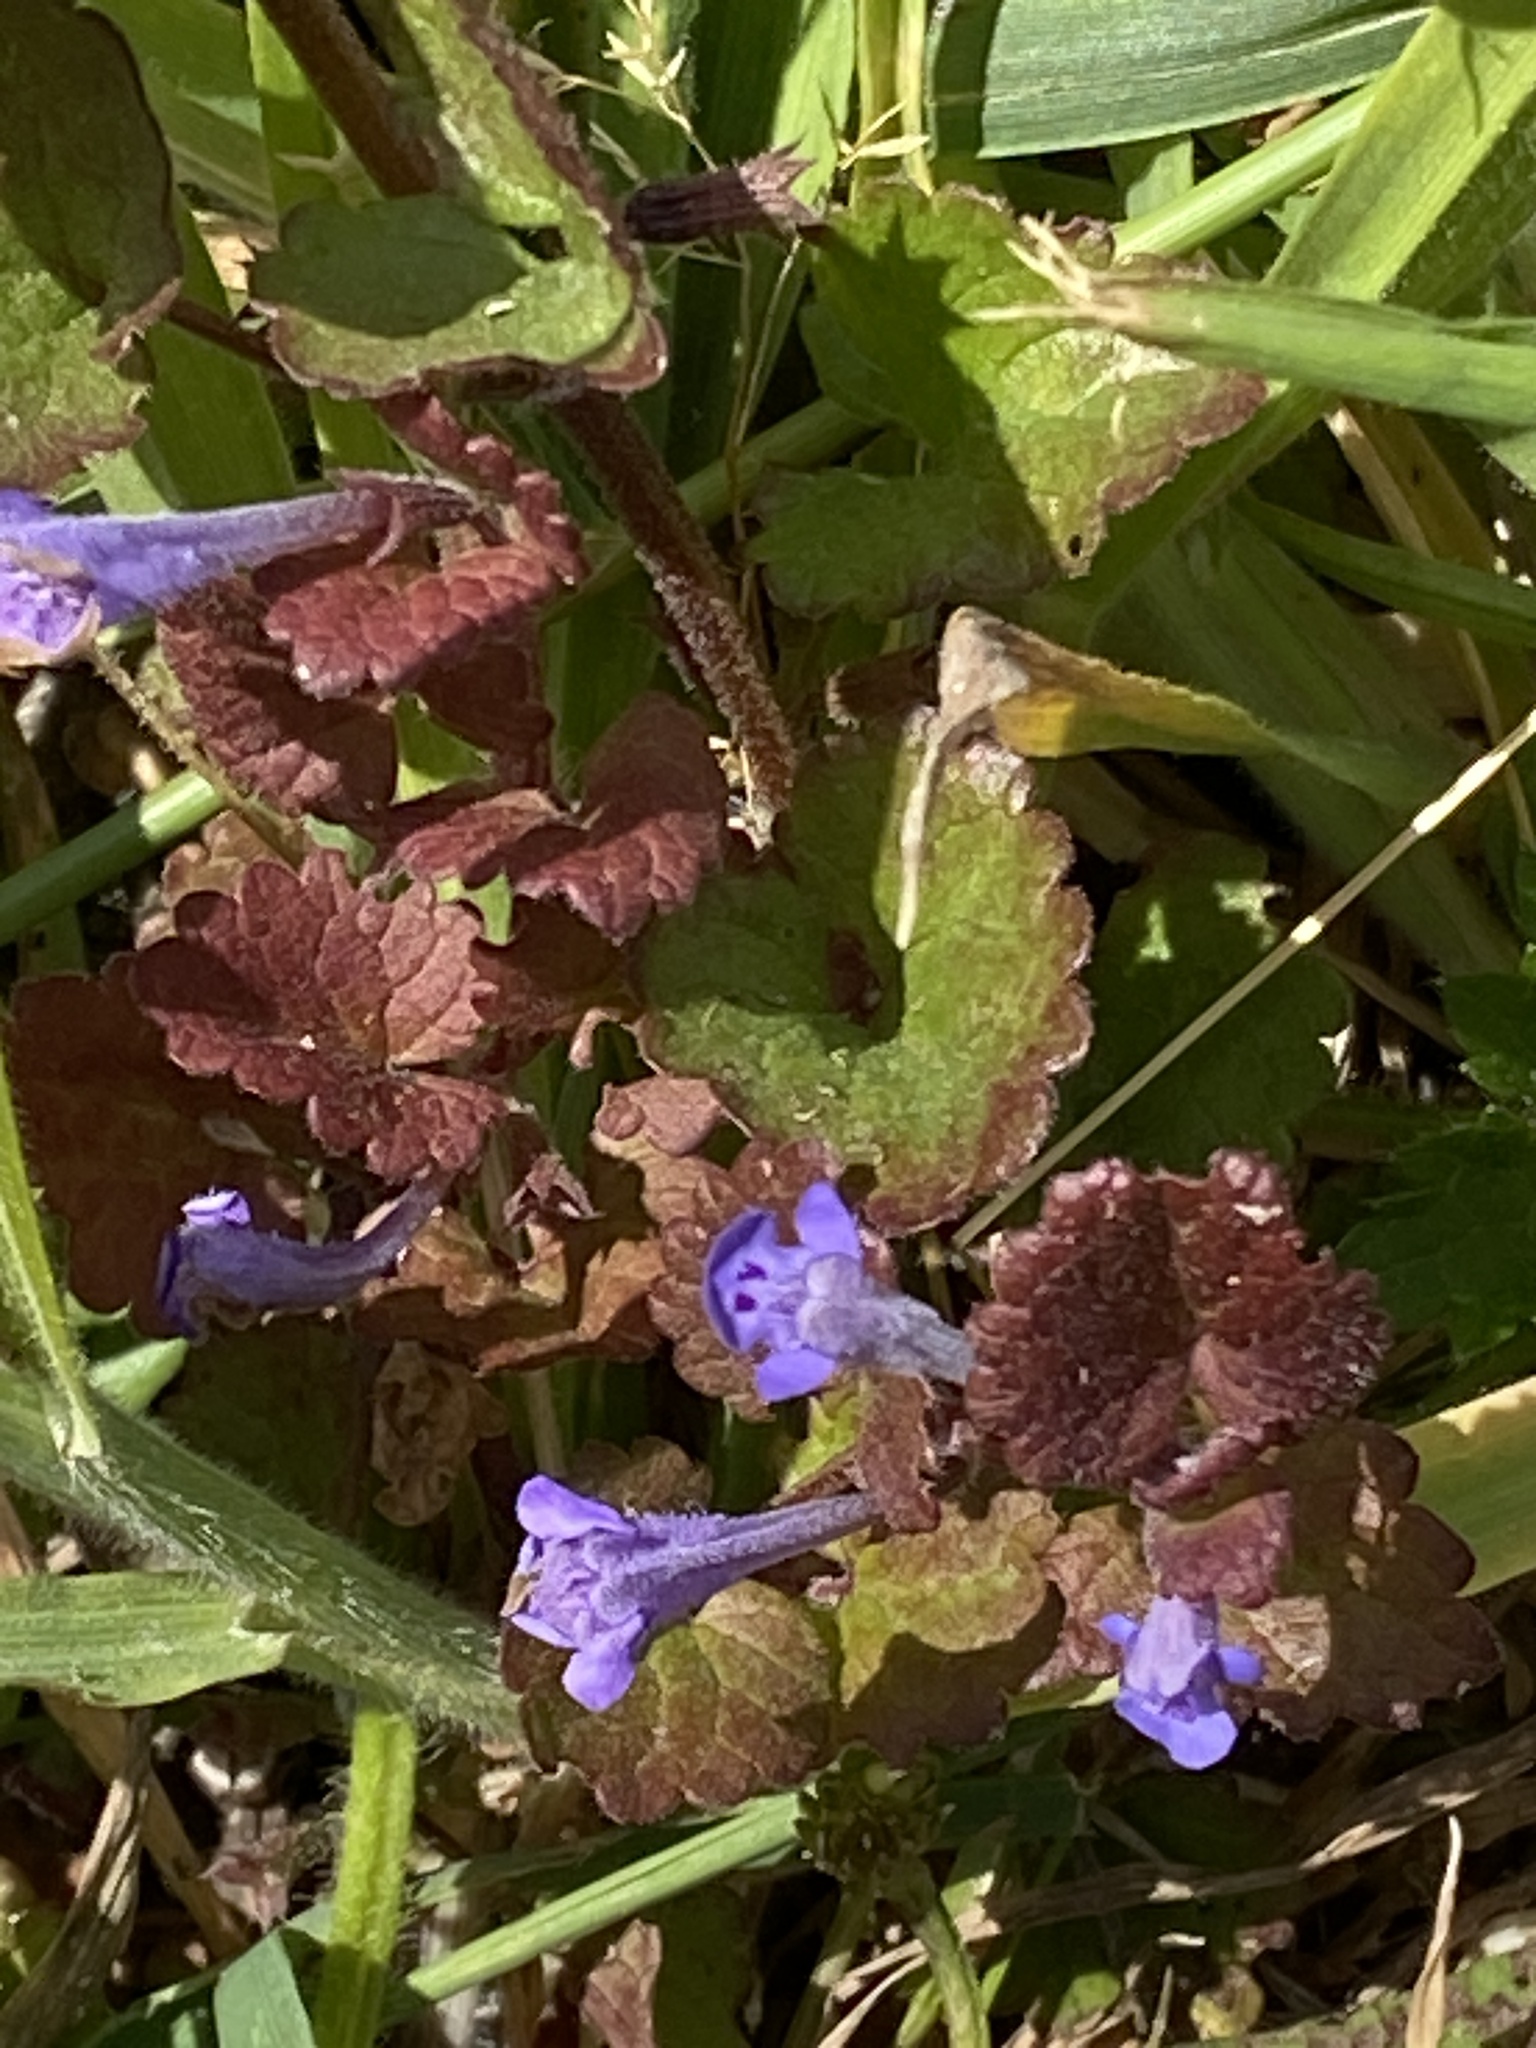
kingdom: Plantae
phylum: Tracheophyta
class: Magnoliopsida
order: Lamiales
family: Lamiaceae
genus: Glechoma
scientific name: Glechoma hederacea
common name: Ground ivy
